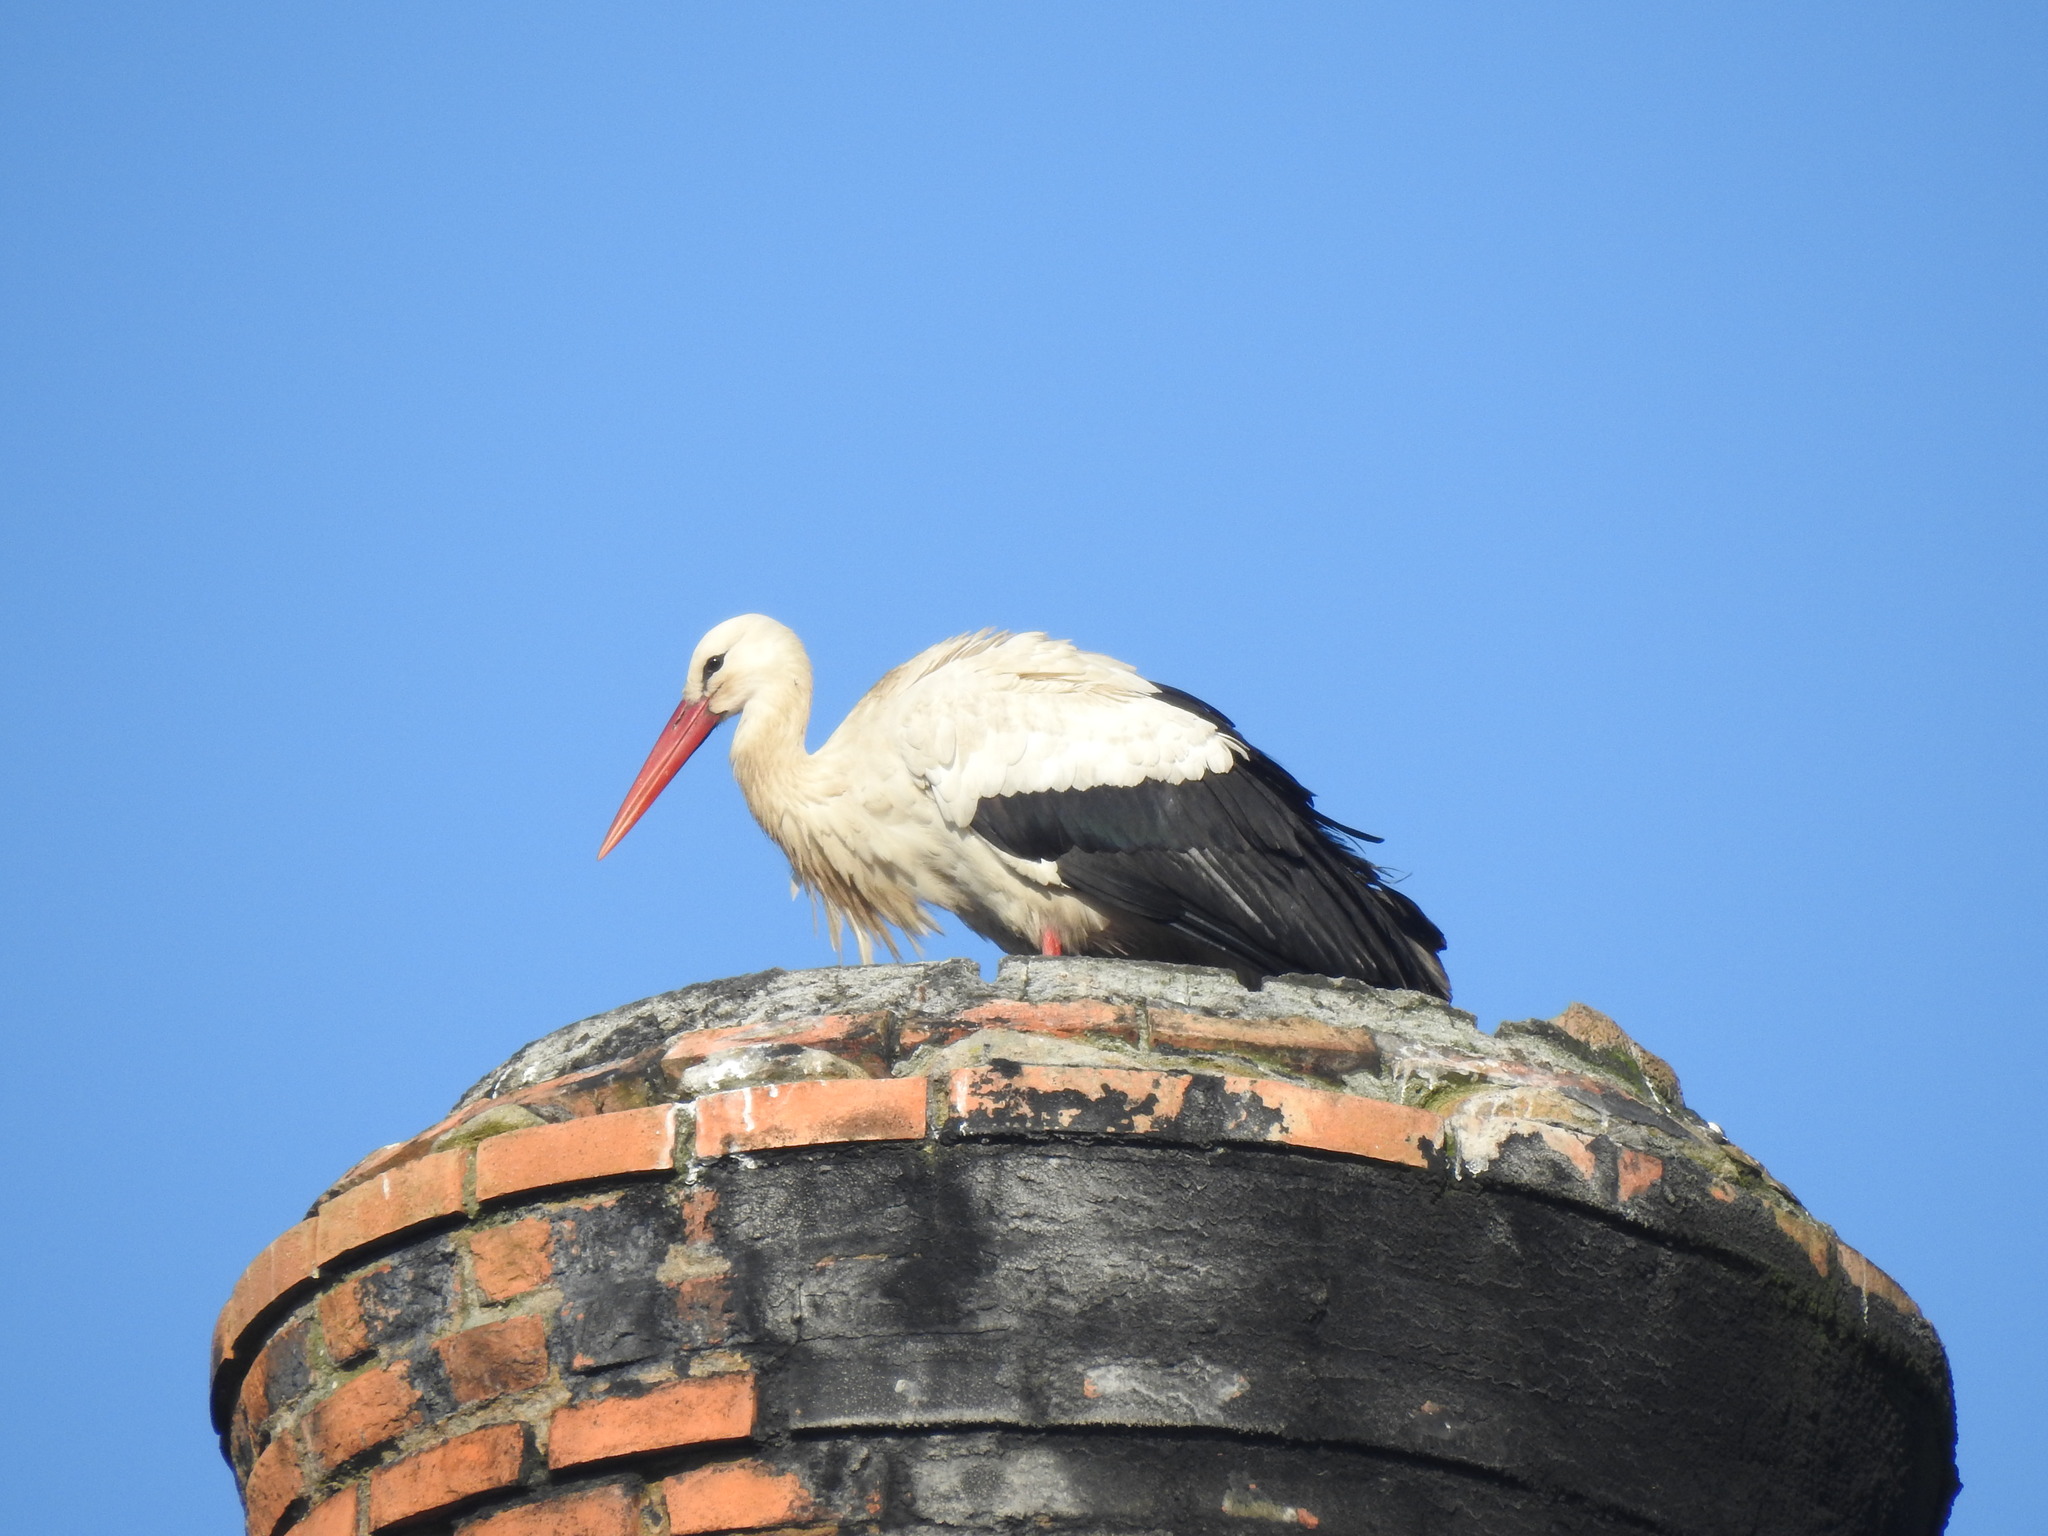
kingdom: Animalia
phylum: Chordata
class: Aves
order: Ciconiiformes
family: Ciconiidae
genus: Ciconia
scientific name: Ciconia ciconia
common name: White stork
